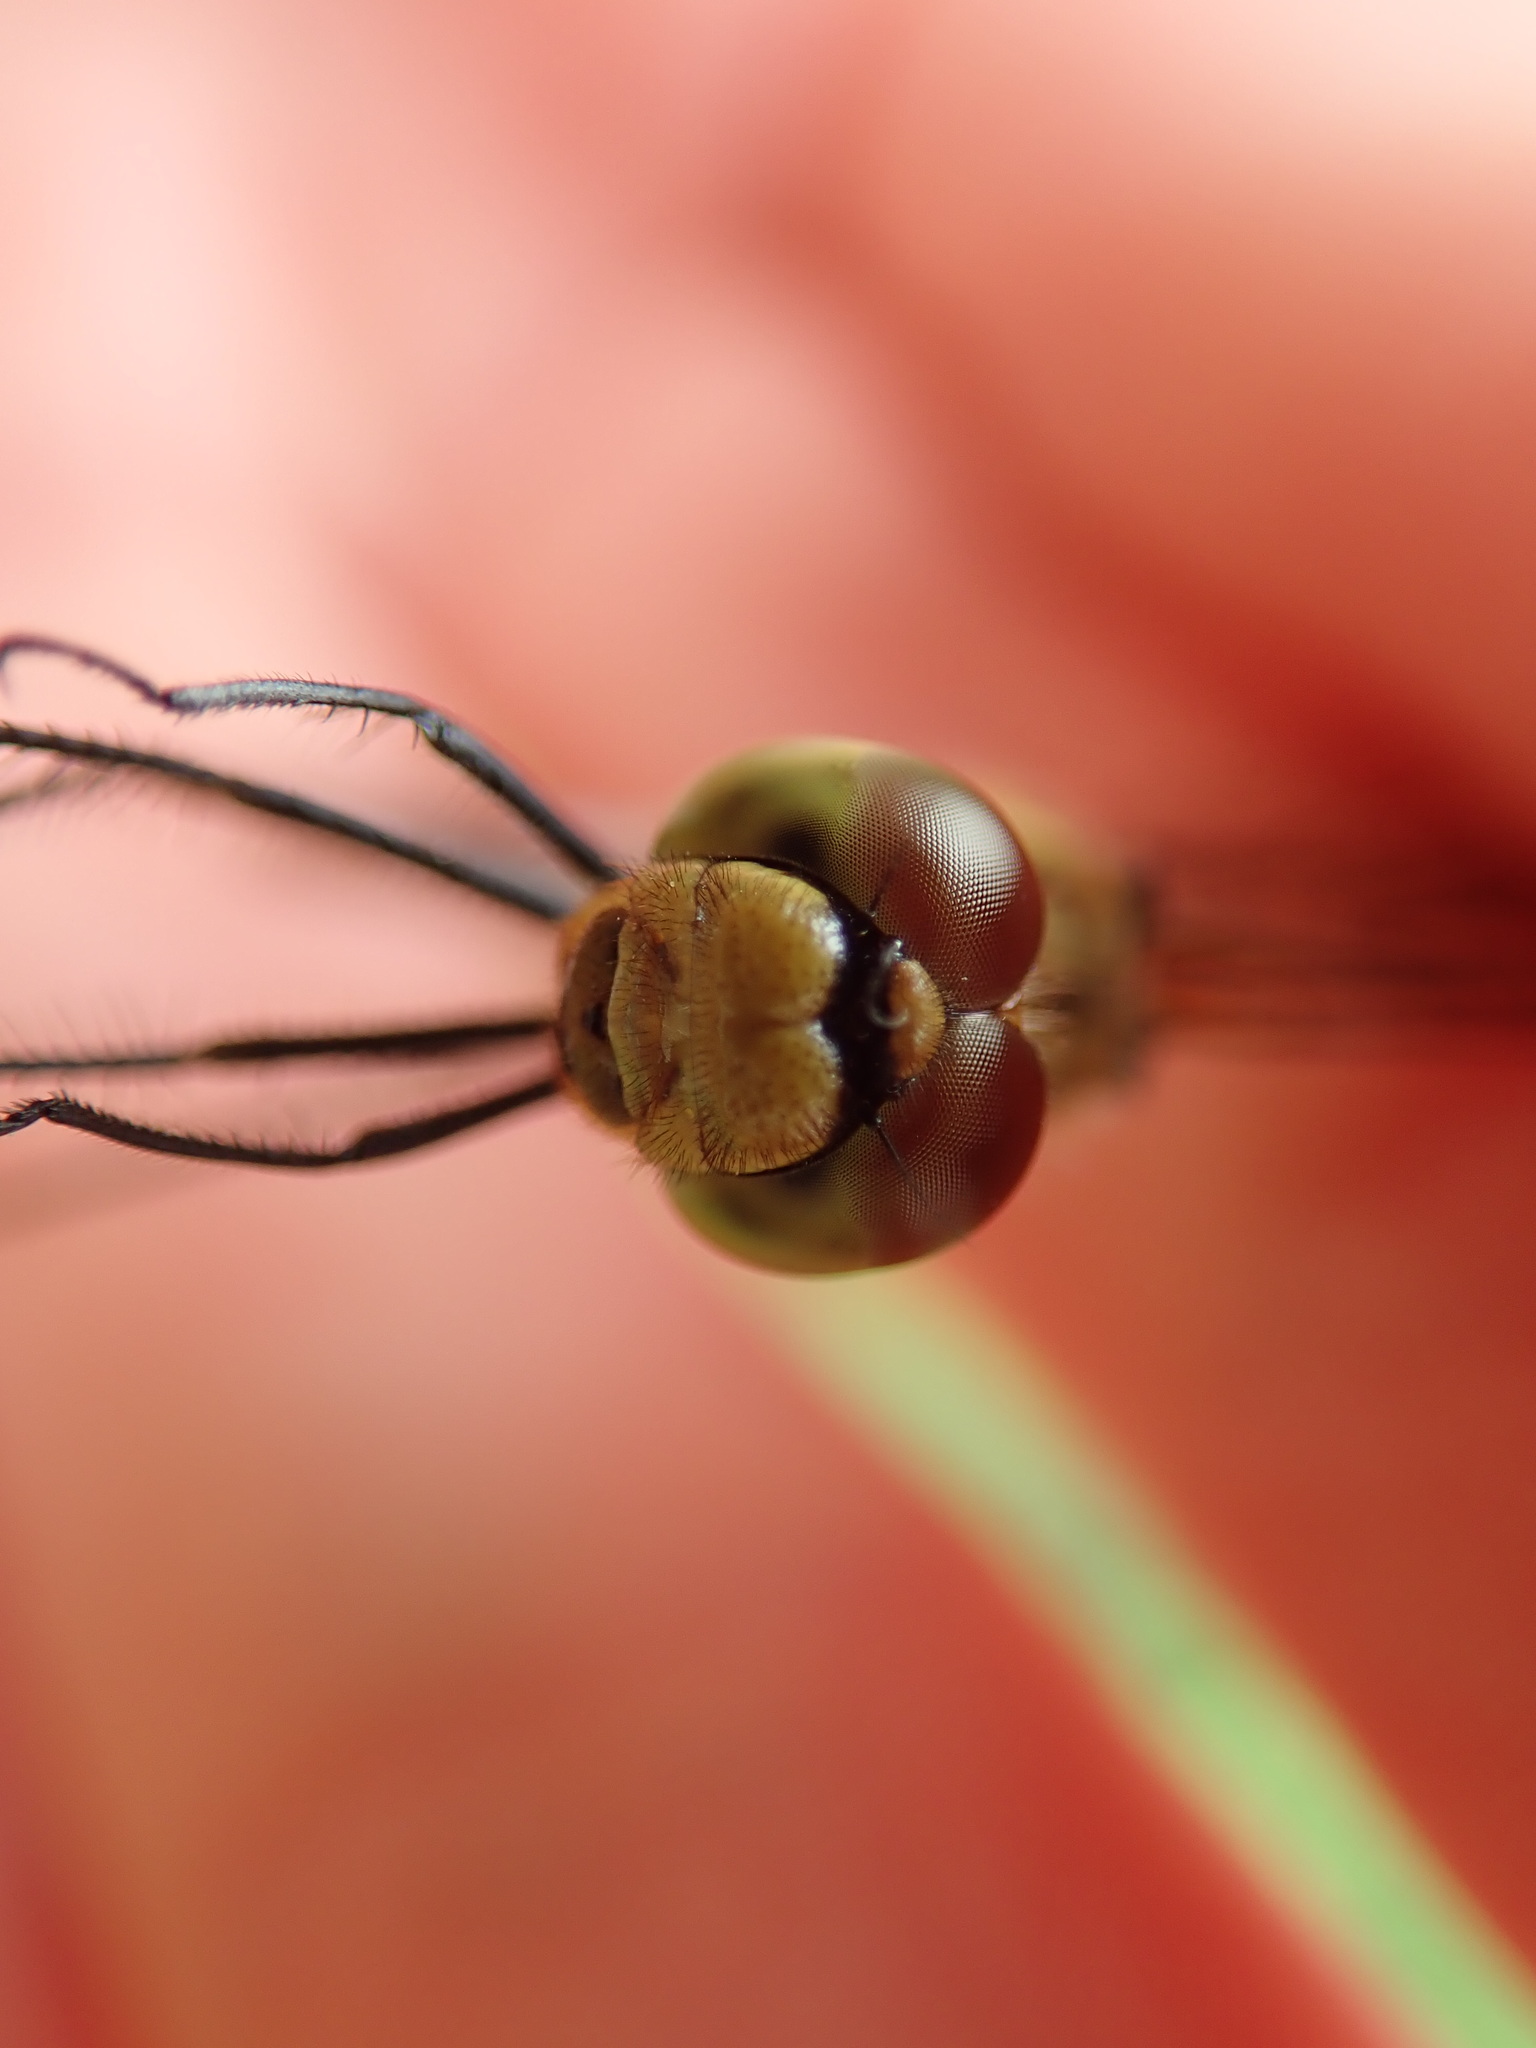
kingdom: Animalia
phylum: Arthropoda
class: Insecta
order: Odonata
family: Libellulidae
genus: Sympetrum
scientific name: Sympetrum sanguineum
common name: Ruddy darter
